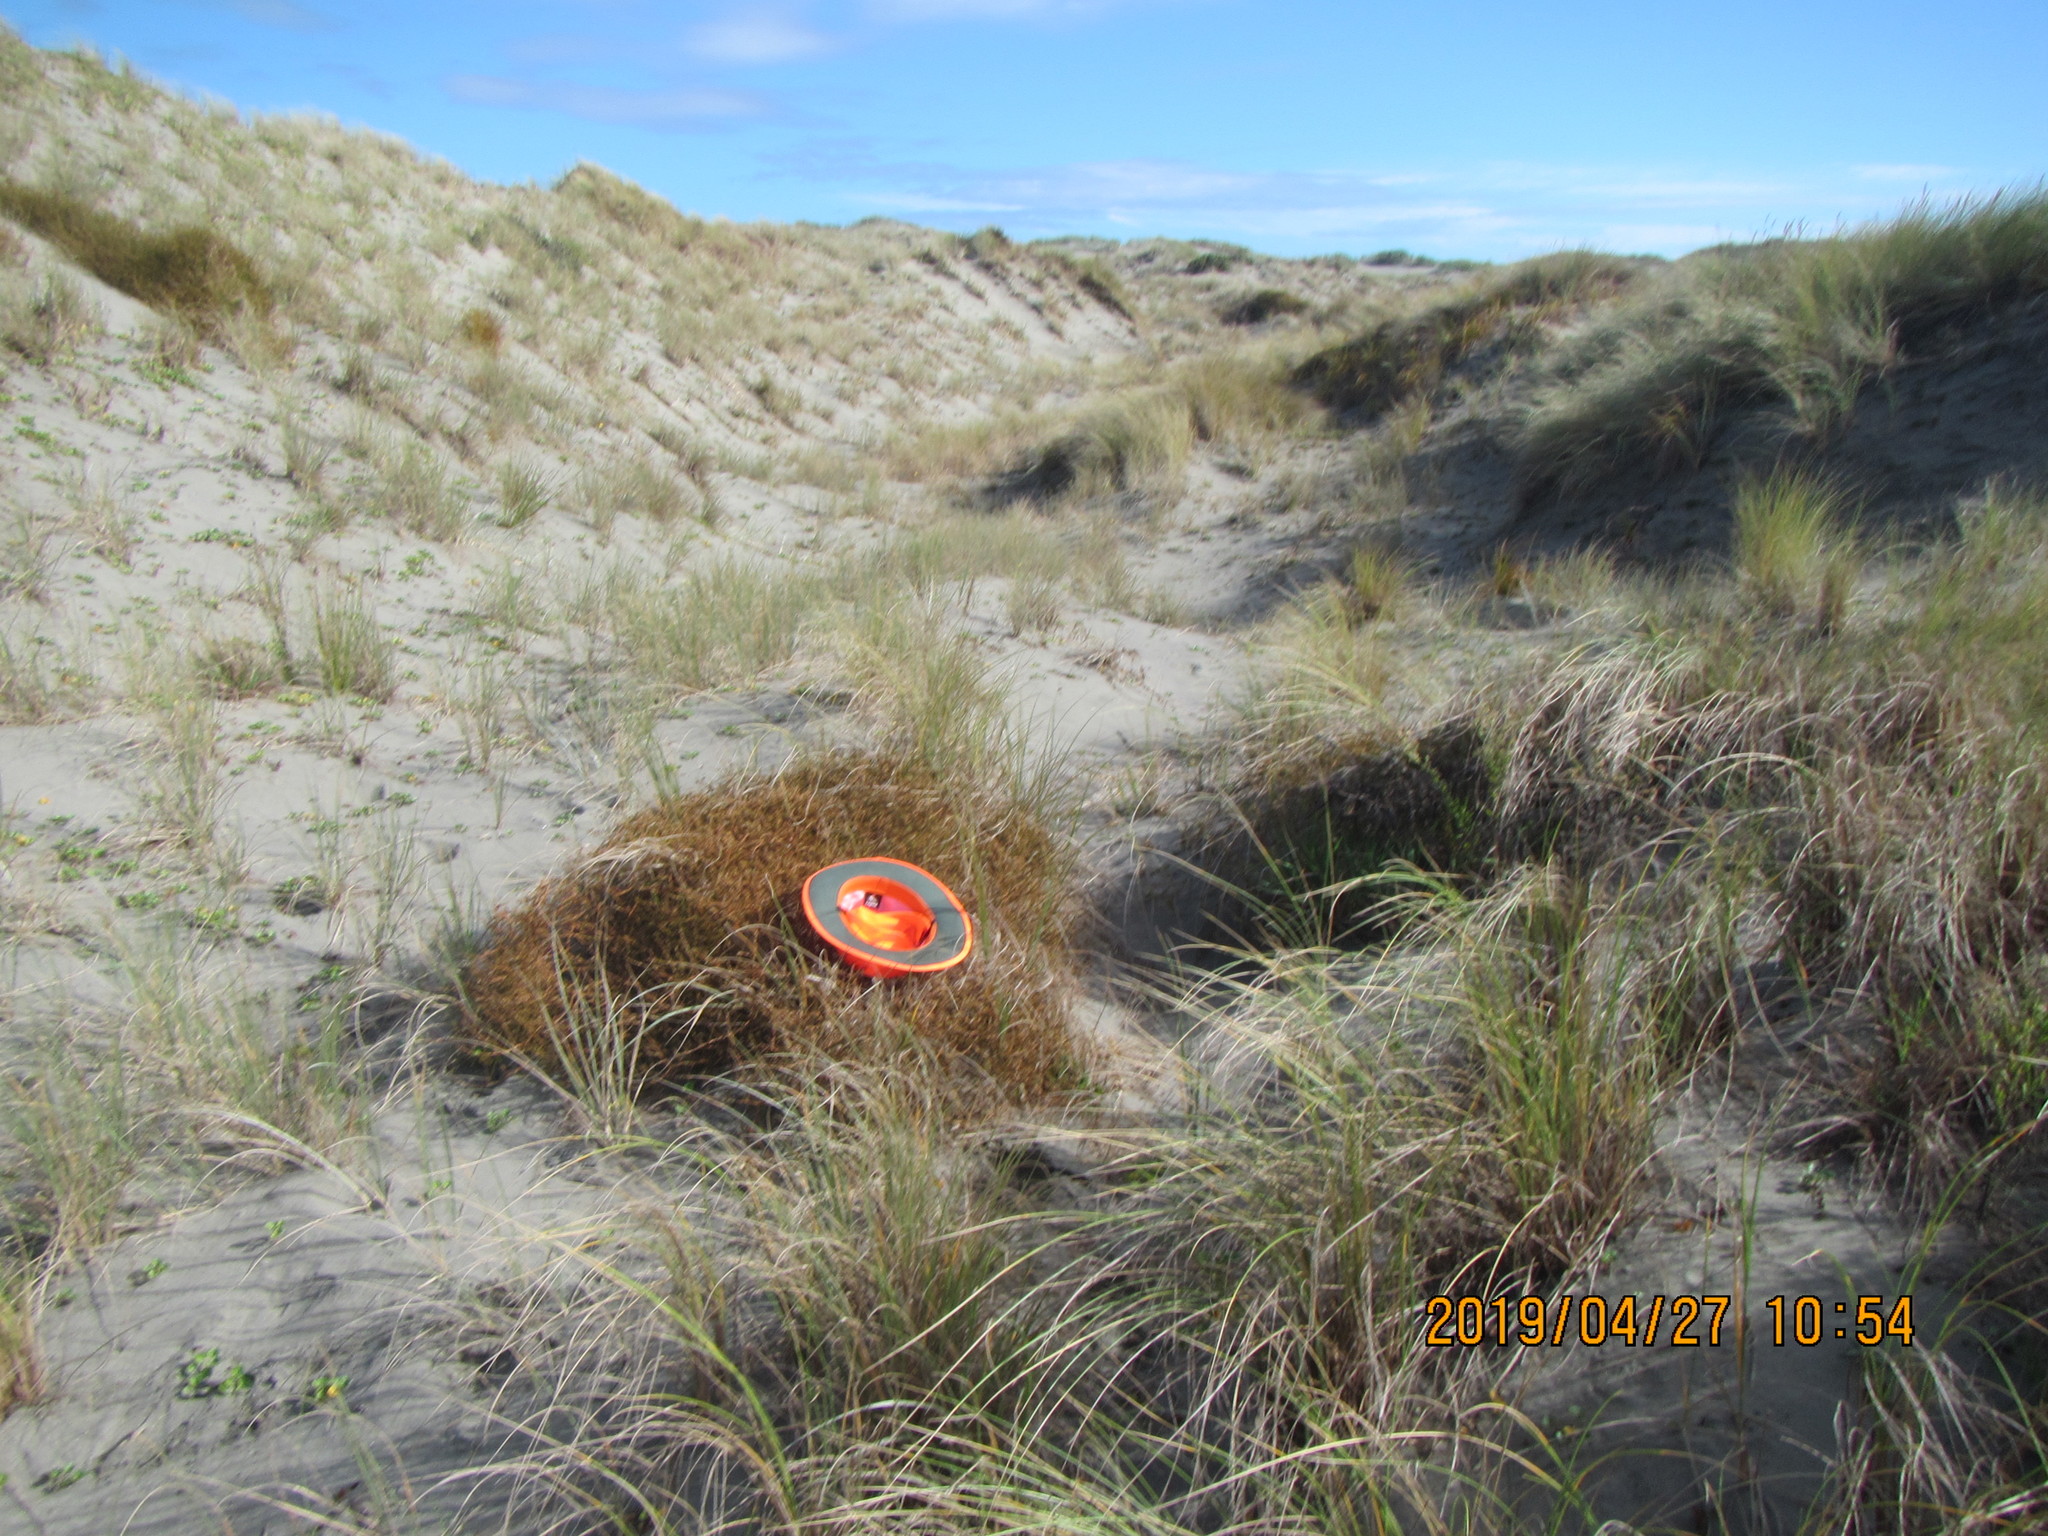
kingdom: Plantae
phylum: Tracheophyta
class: Magnoliopsida
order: Gentianales
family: Rubiaceae
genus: Coprosma
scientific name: Coprosma acerosa
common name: Sand coprosma
